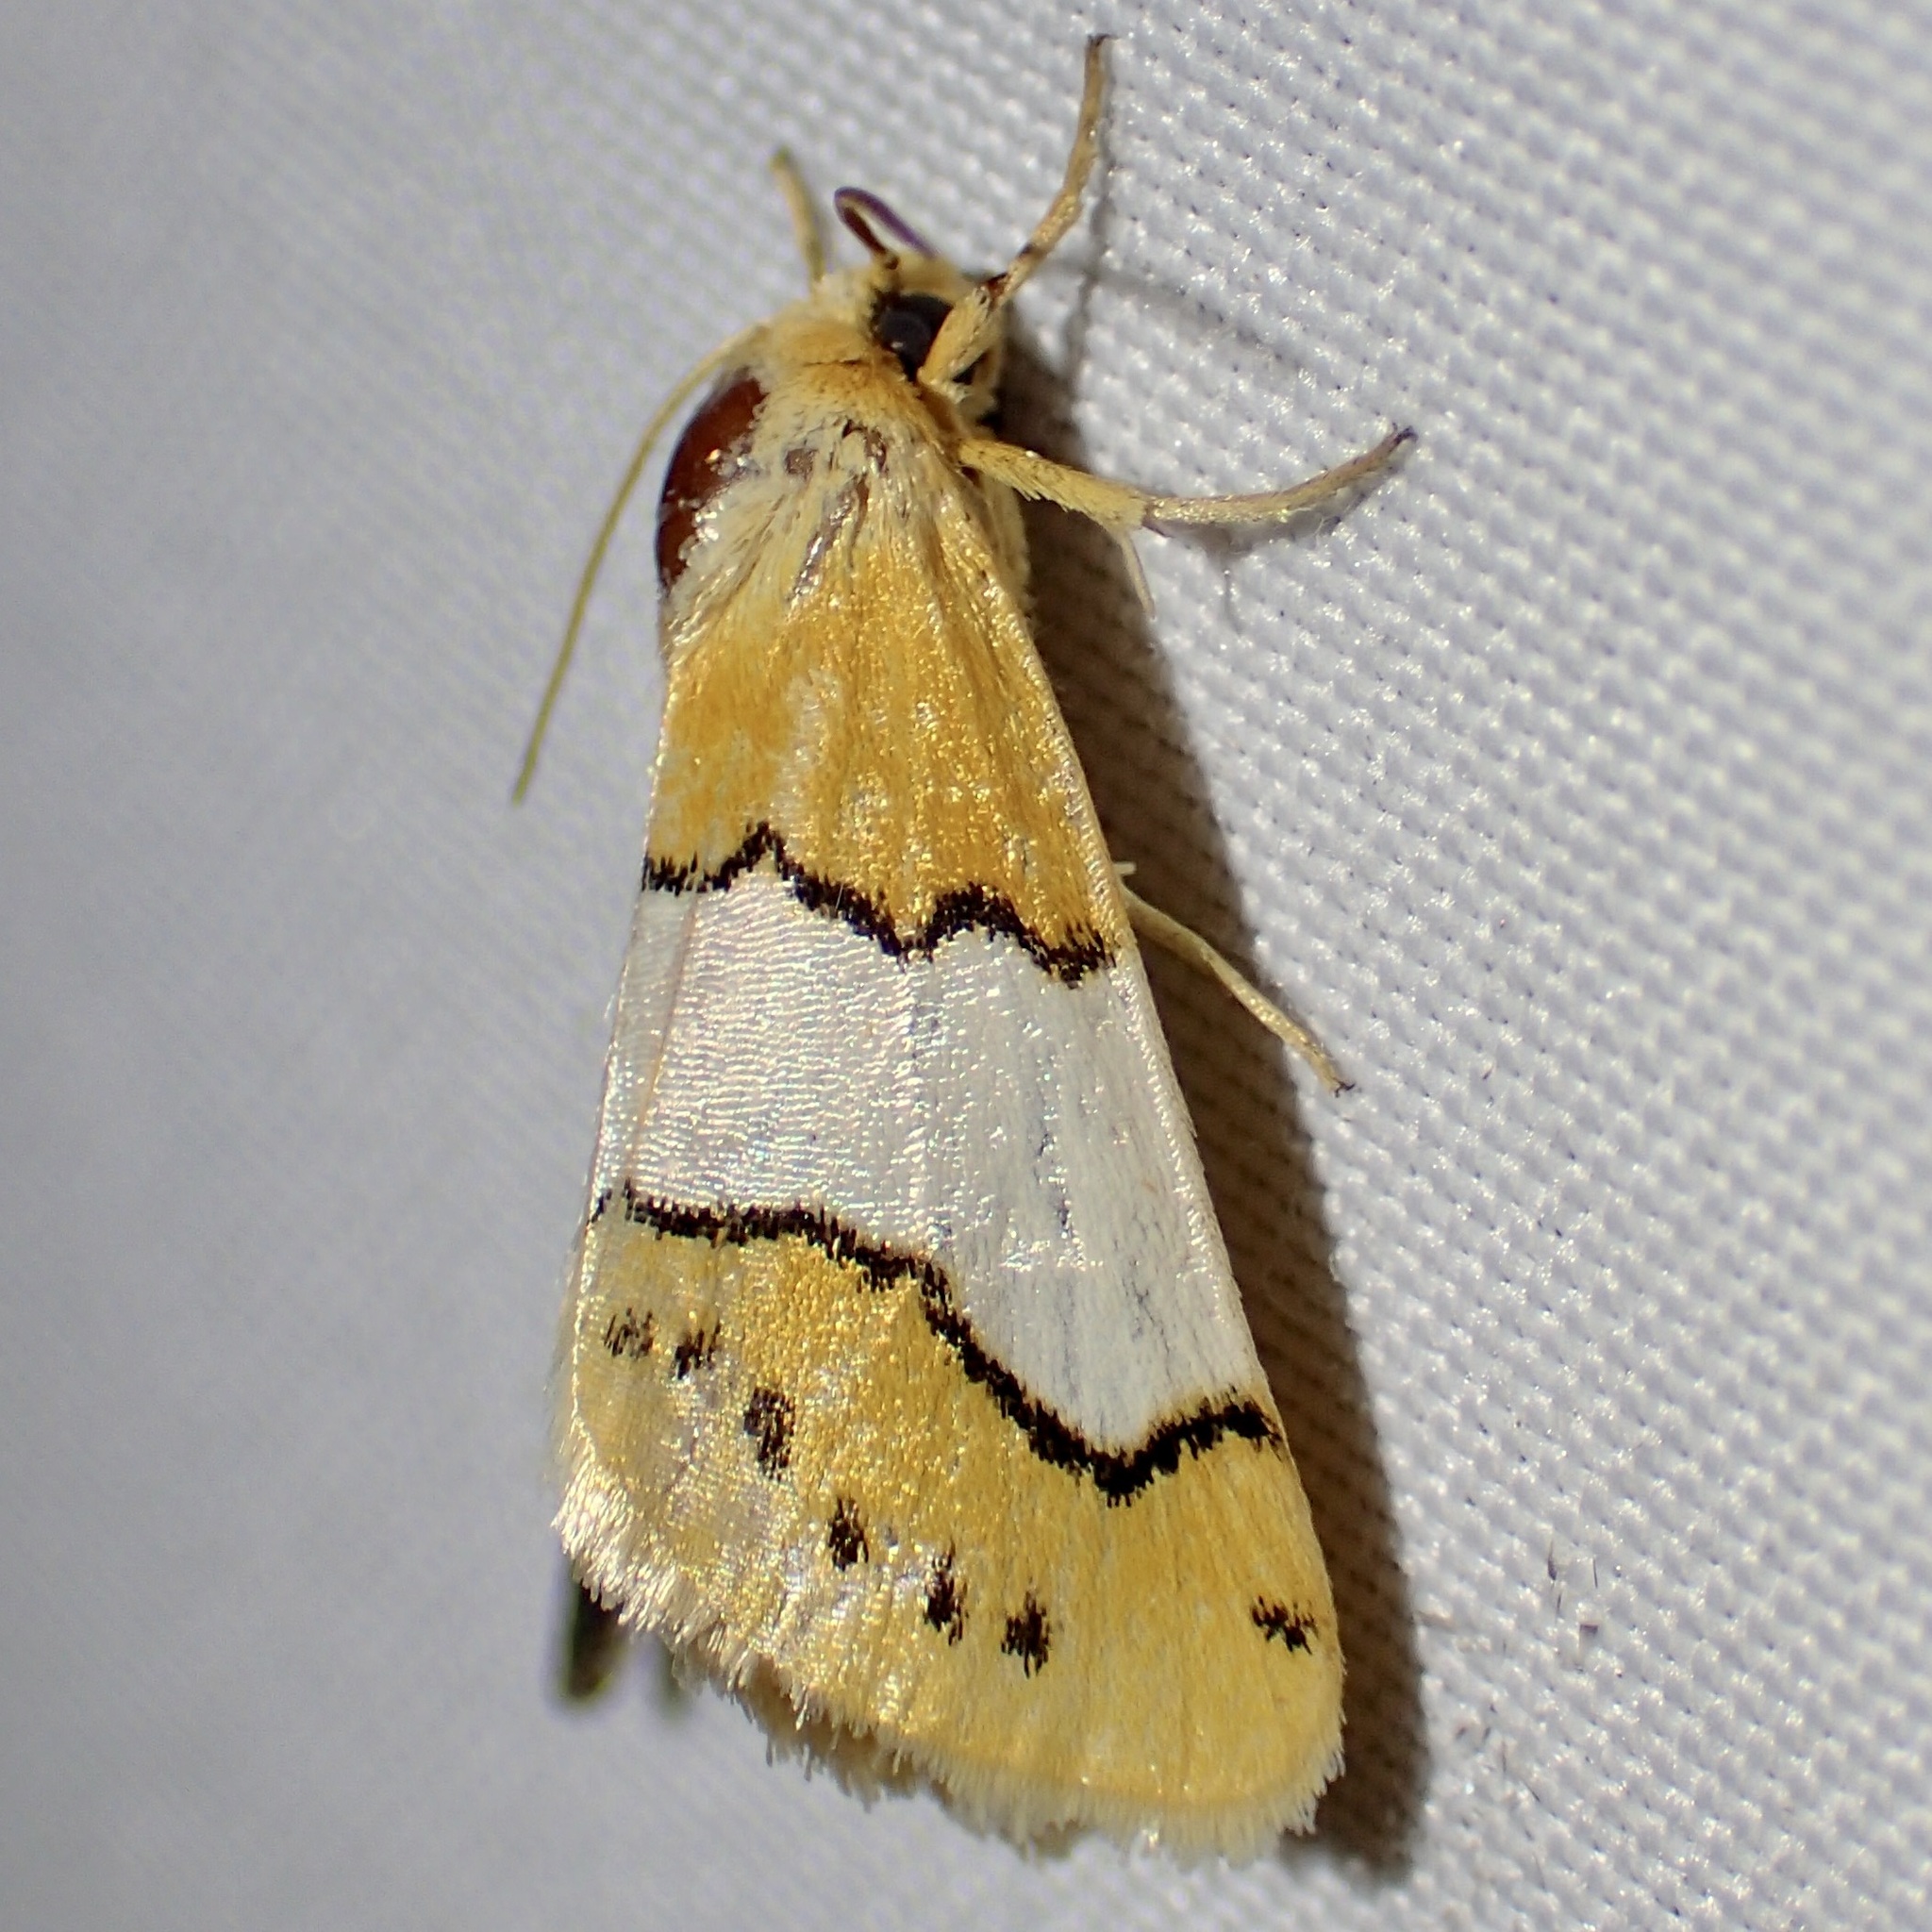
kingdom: Animalia
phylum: Arthropoda
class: Insecta
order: Lepidoptera
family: Noctuidae
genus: Lineostriastiria
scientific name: Lineostriastiria hachita
